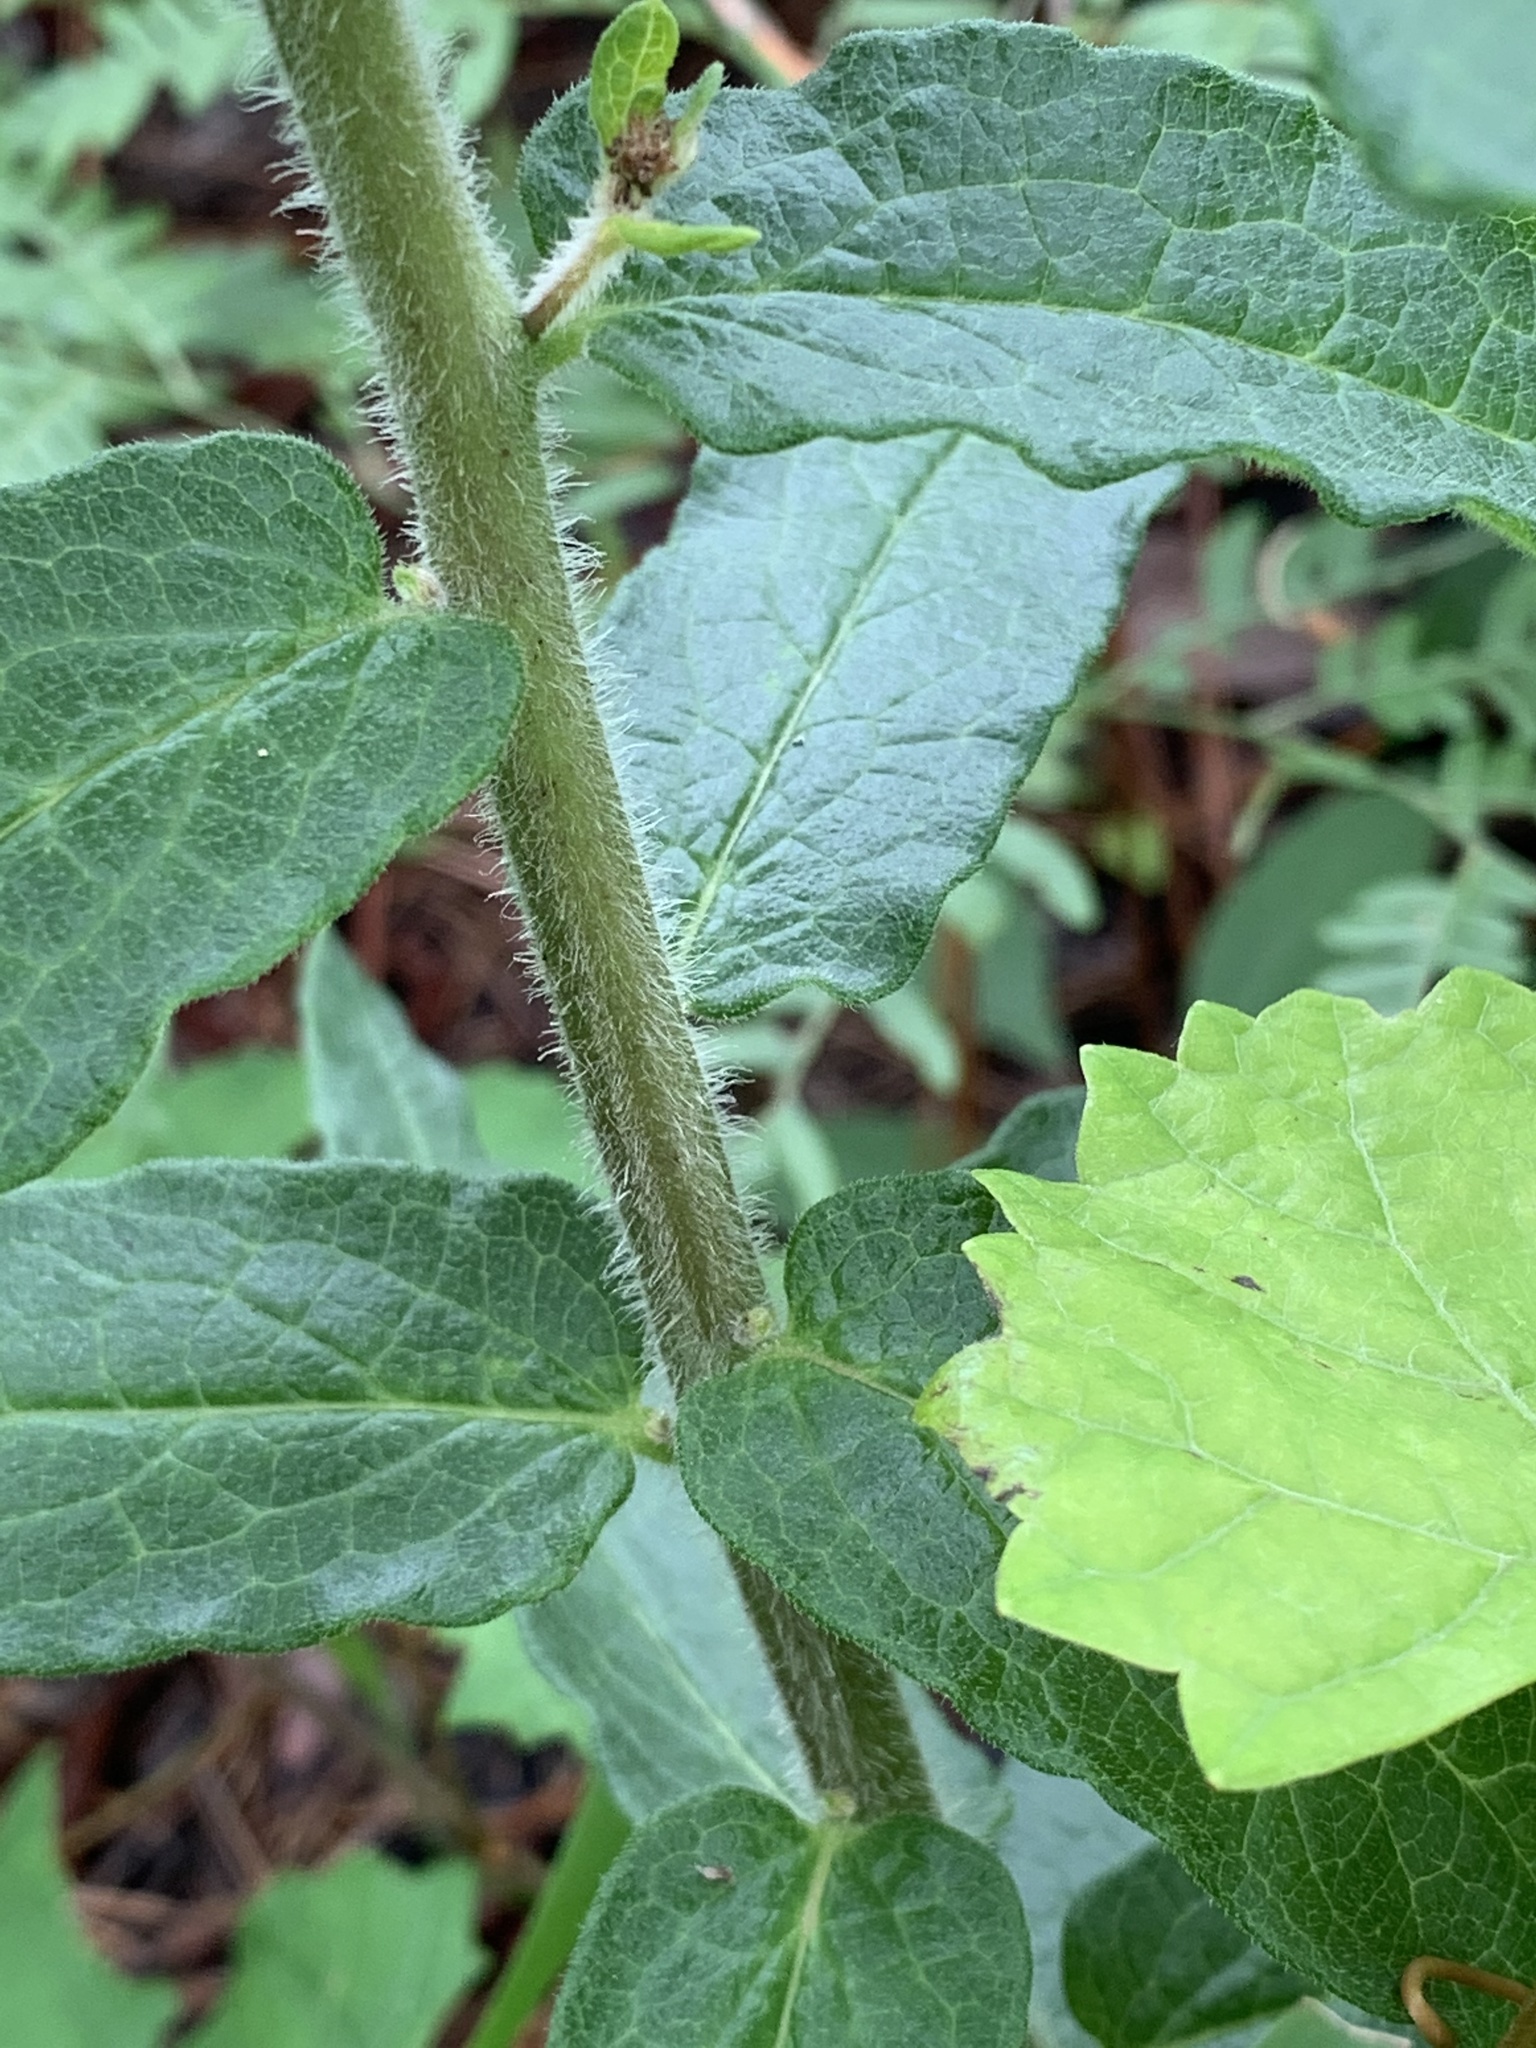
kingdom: Plantae
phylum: Tracheophyta
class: Magnoliopsida
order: Gentianales
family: Apocynaceae
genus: Asclepias
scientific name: Asclepias tuberosa
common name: Butterfly milkweed
